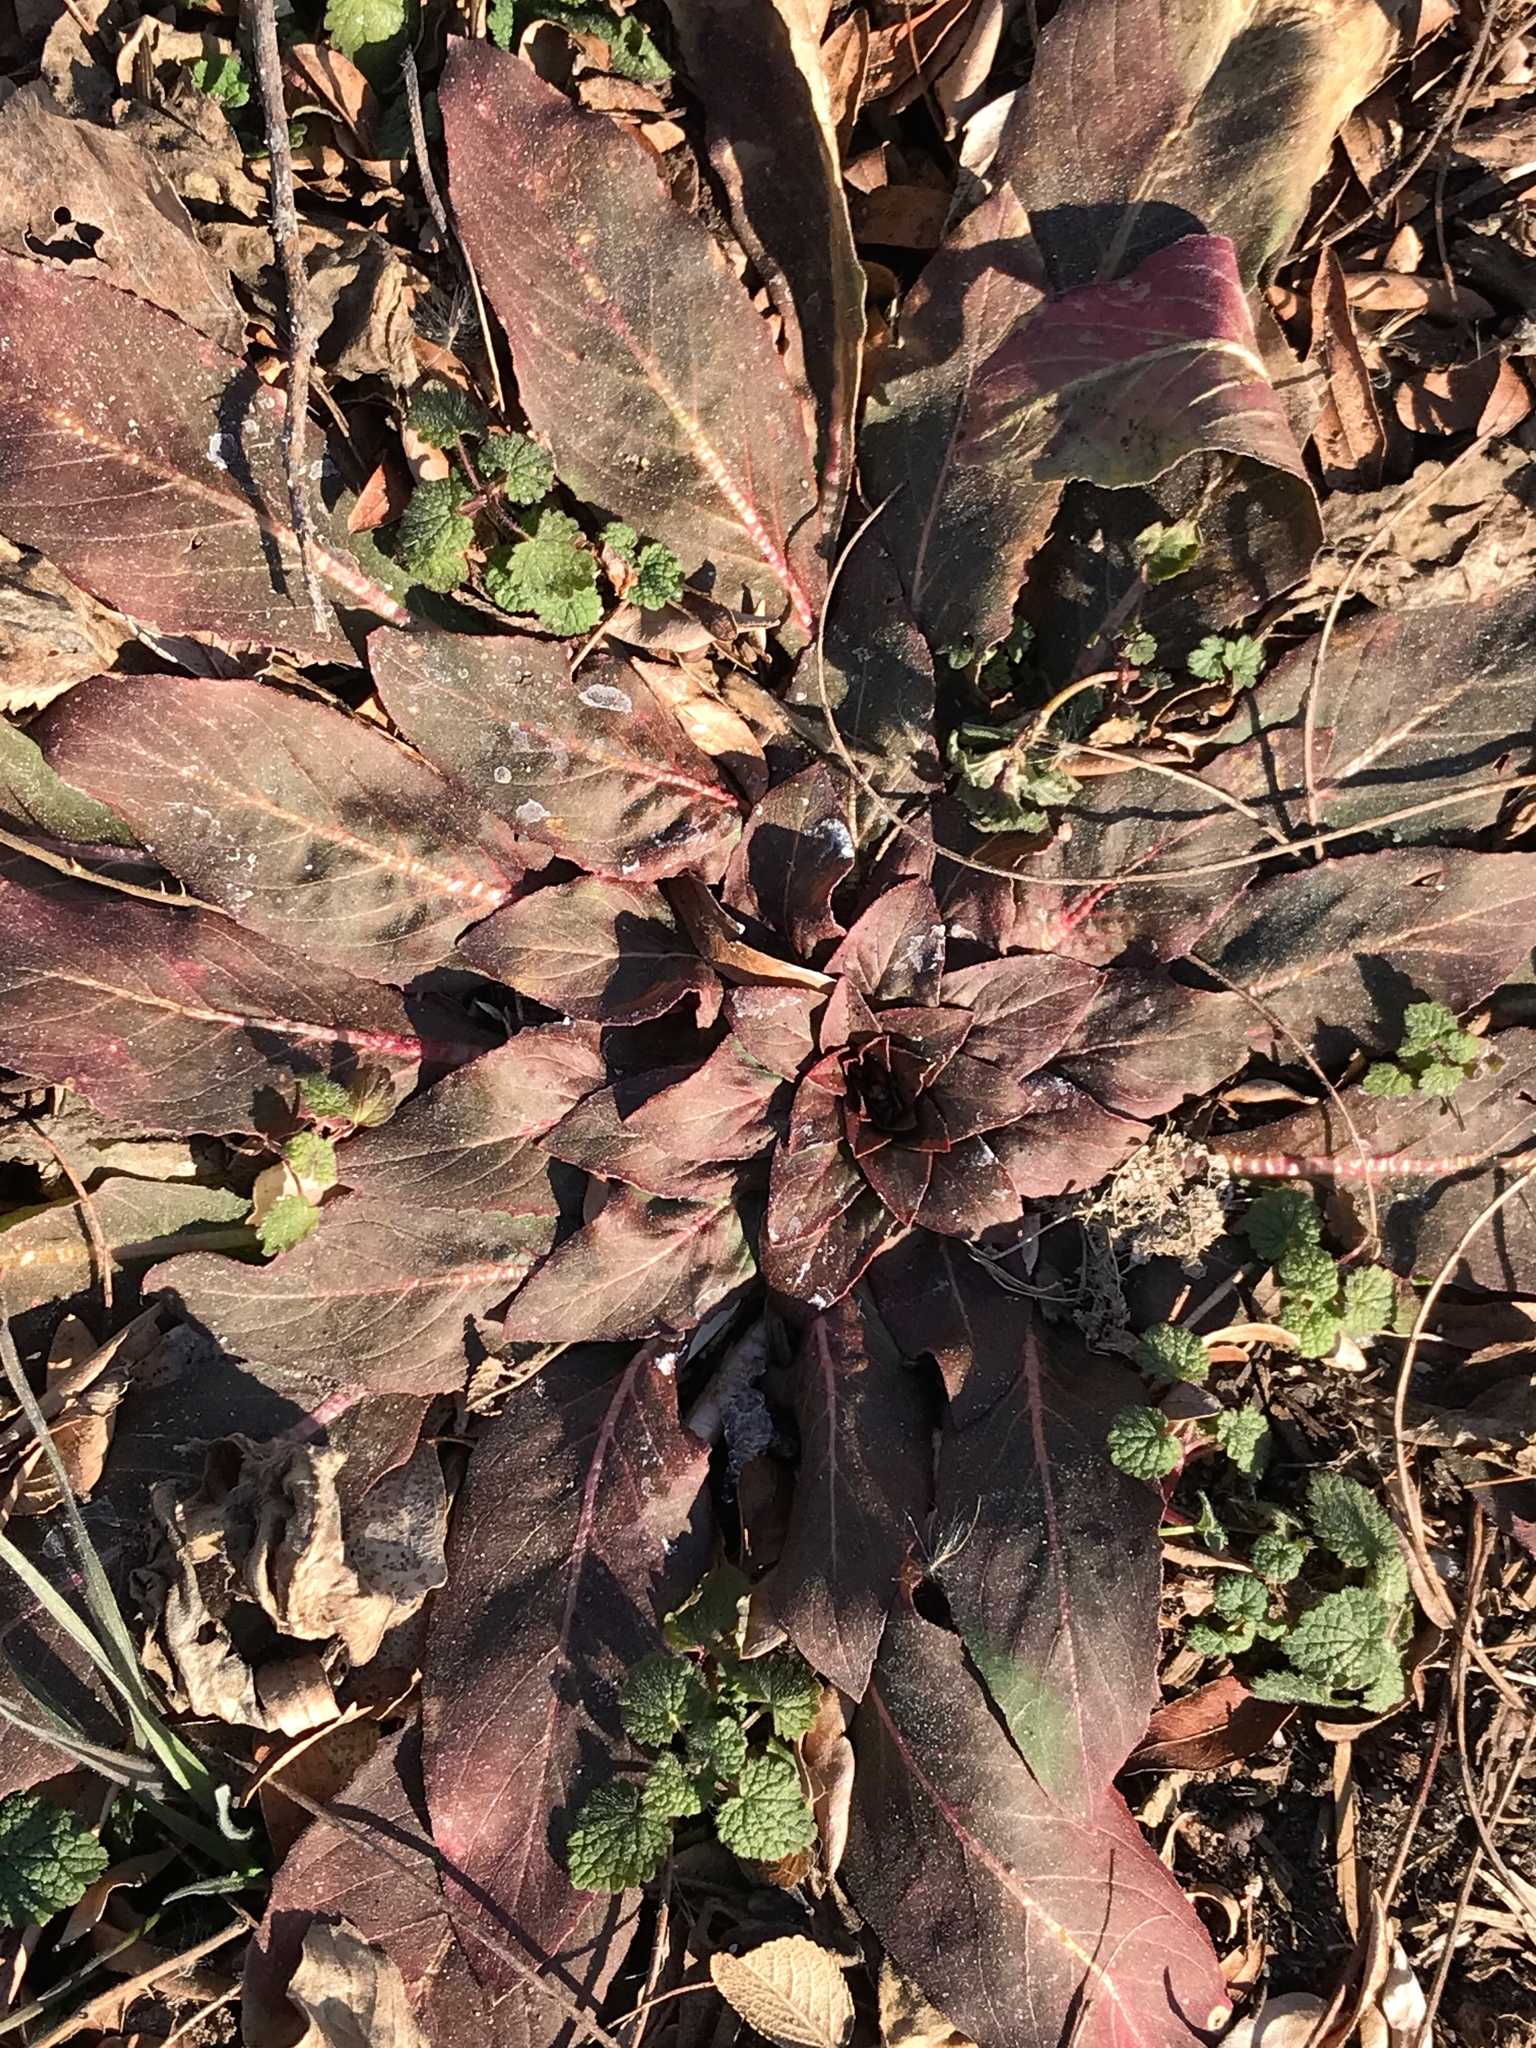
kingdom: Plantae
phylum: Tracheophyta
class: Magnoliopsida
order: Myrtales
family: Onagraceae
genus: Oenothera
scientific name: Oenothera biennis
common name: Common evening-primrose
